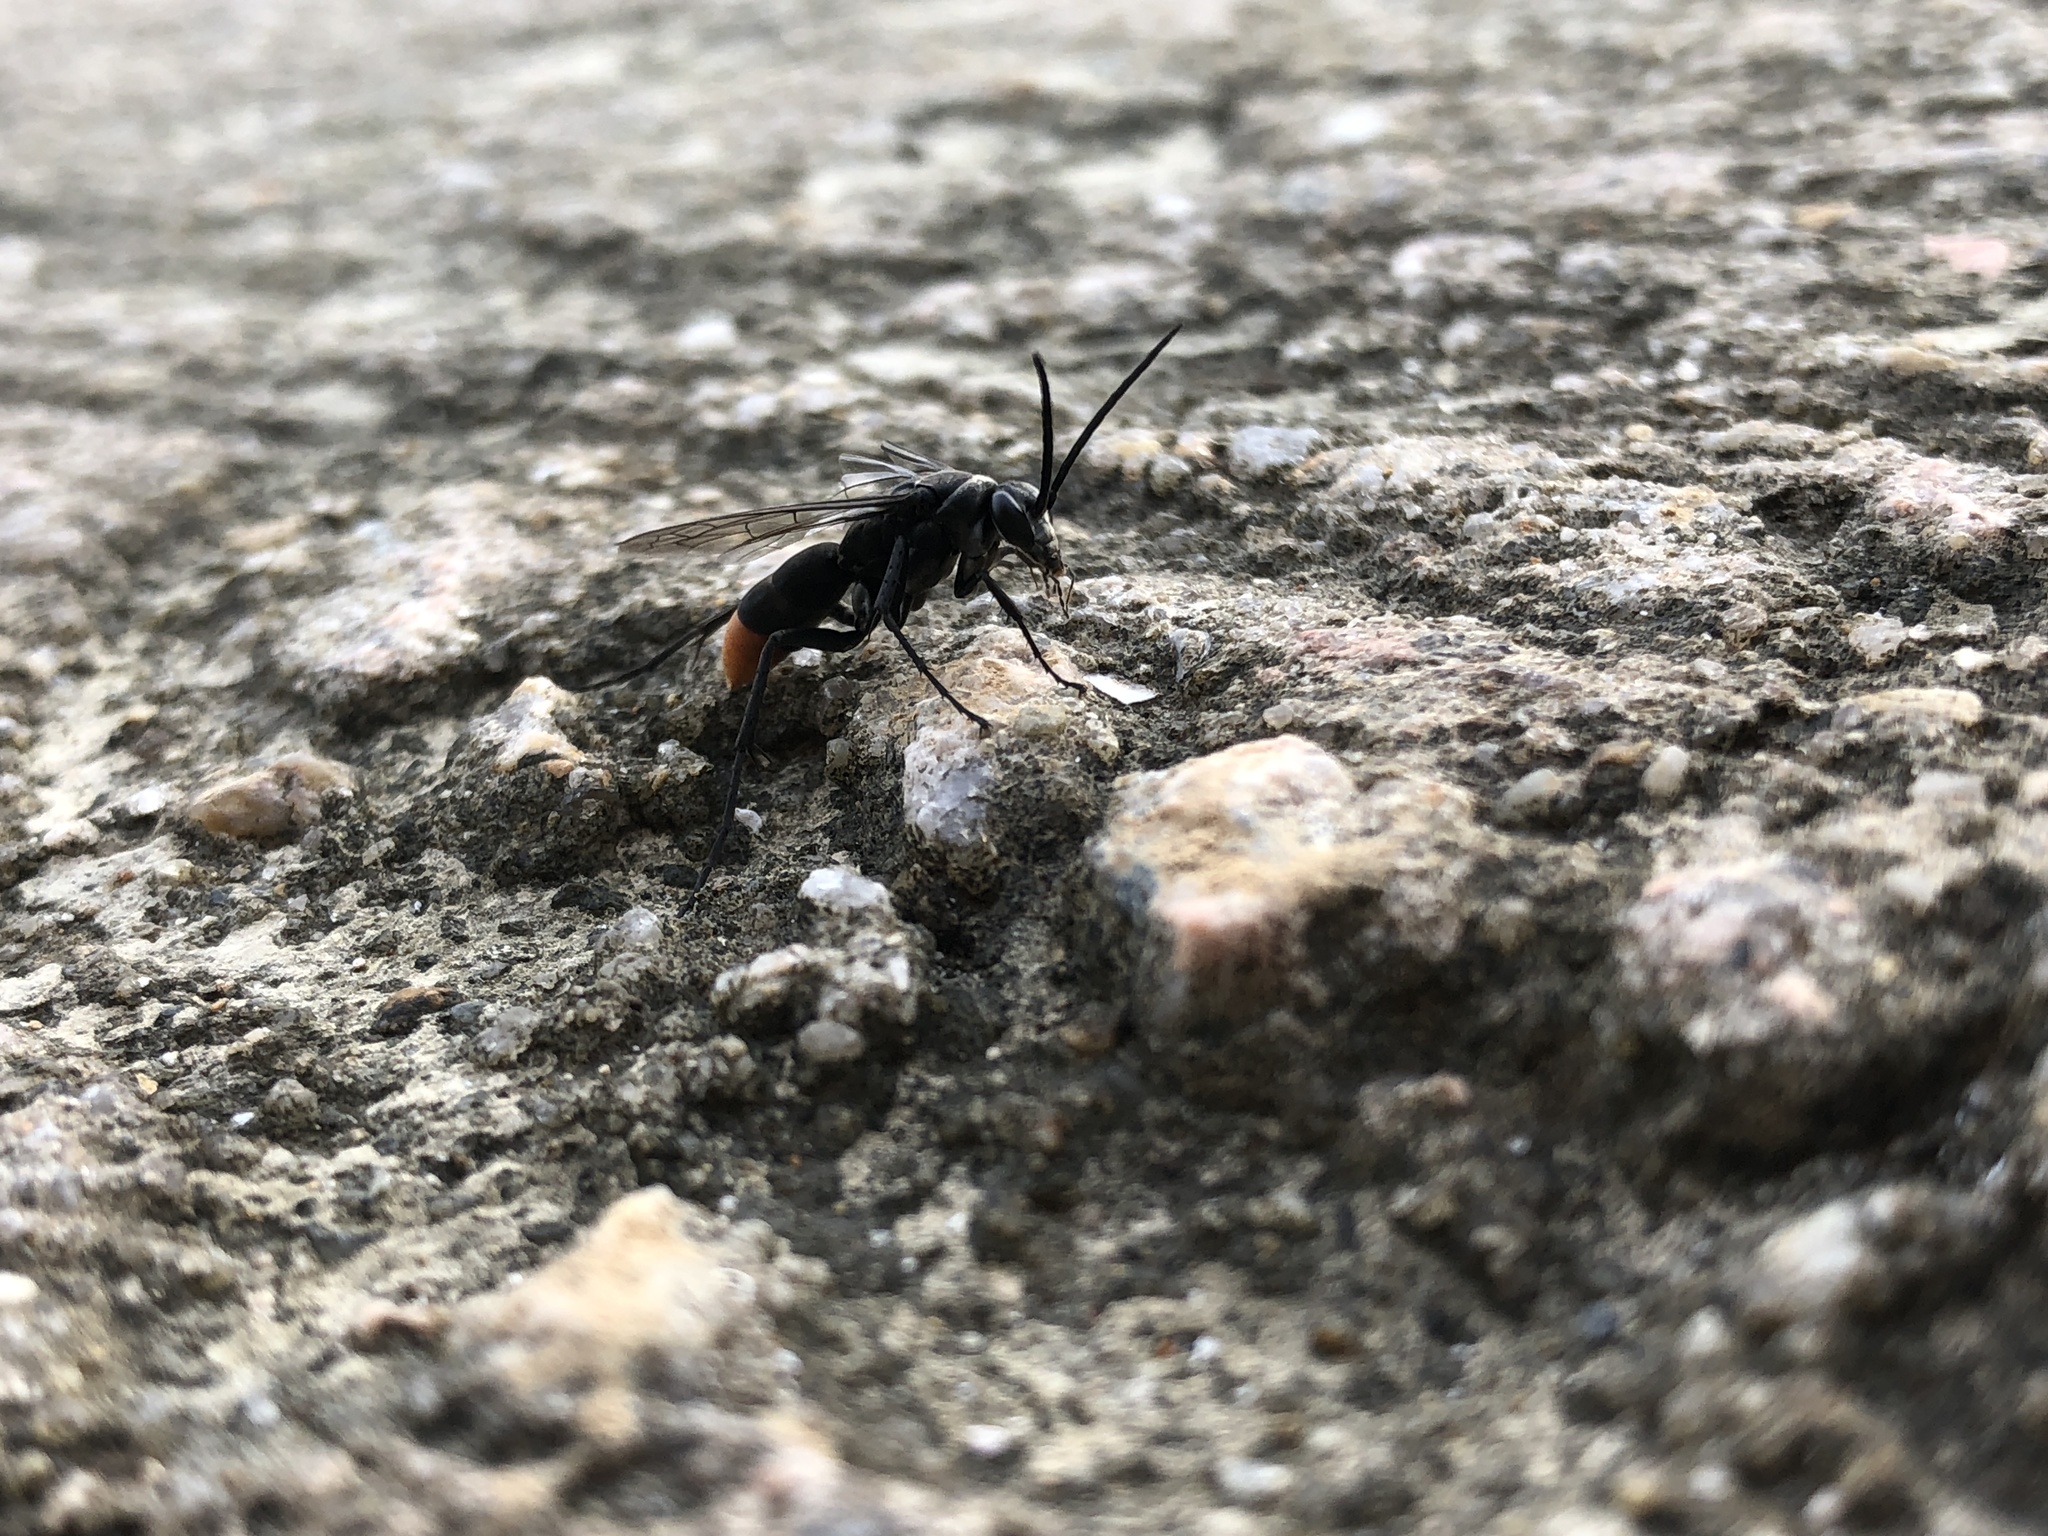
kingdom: Animalia
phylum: Arthropoda
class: Insecta
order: Hymenoptera
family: Pompilidae
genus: Tachypompilus
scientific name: Tachypompilus analis
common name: Spider wasp
